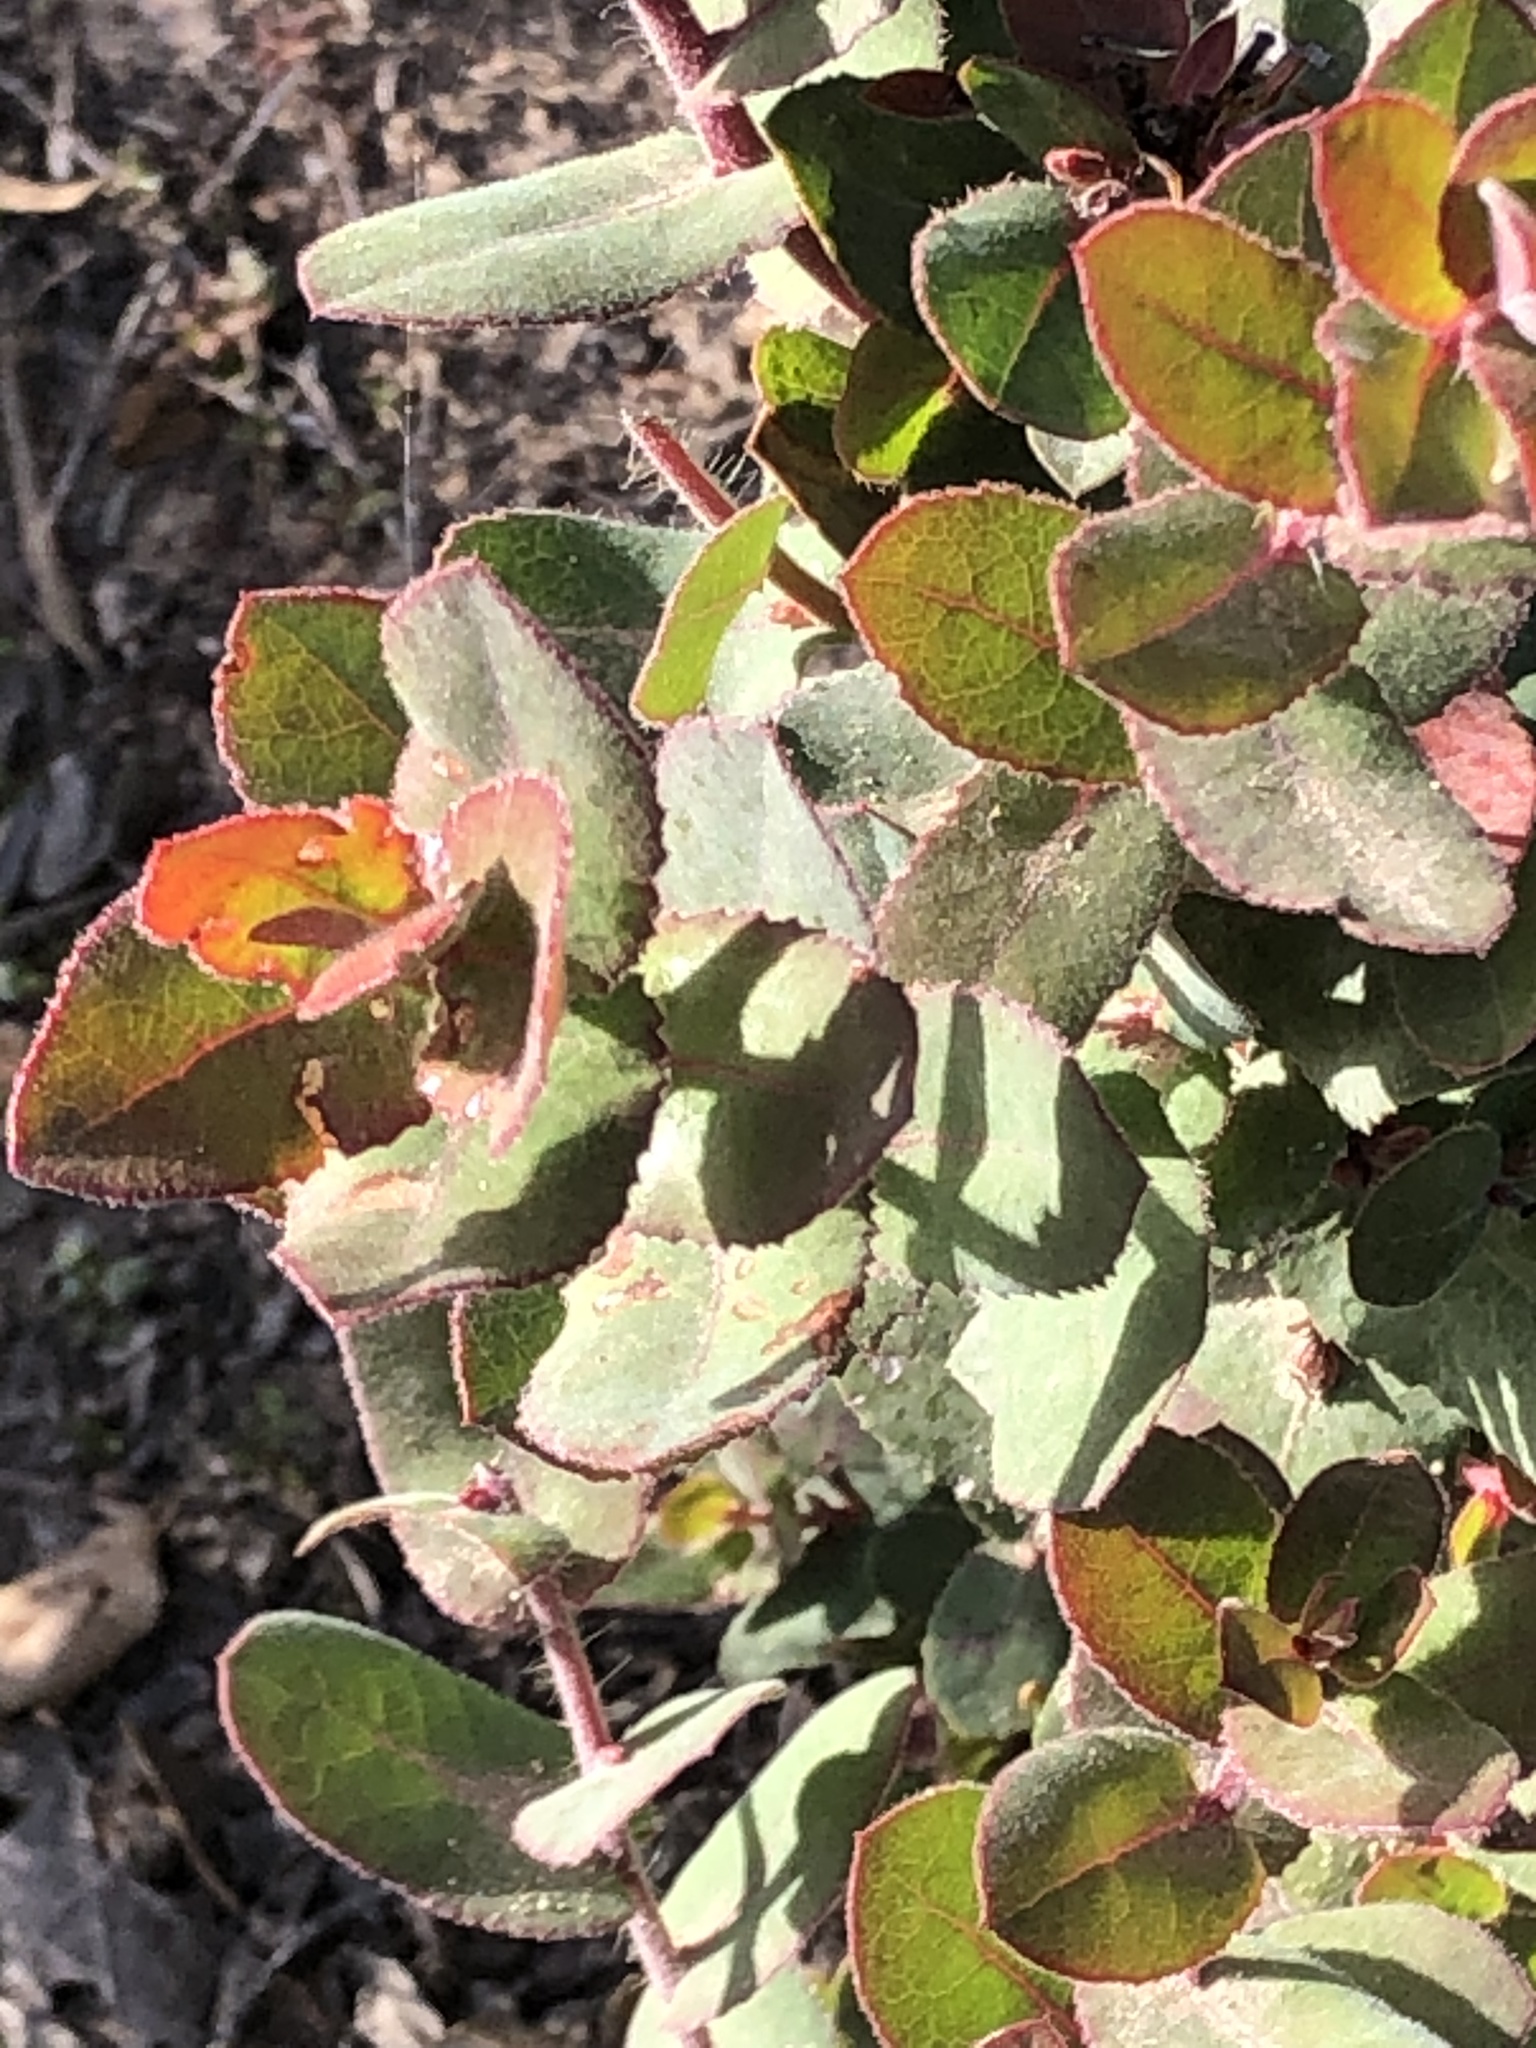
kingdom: Plantae
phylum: Tracheophyta
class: Magnoliopsida
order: Ericales
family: Ericaceae
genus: Arctostaphylos
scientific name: Arctostaphylos pajaroensis
